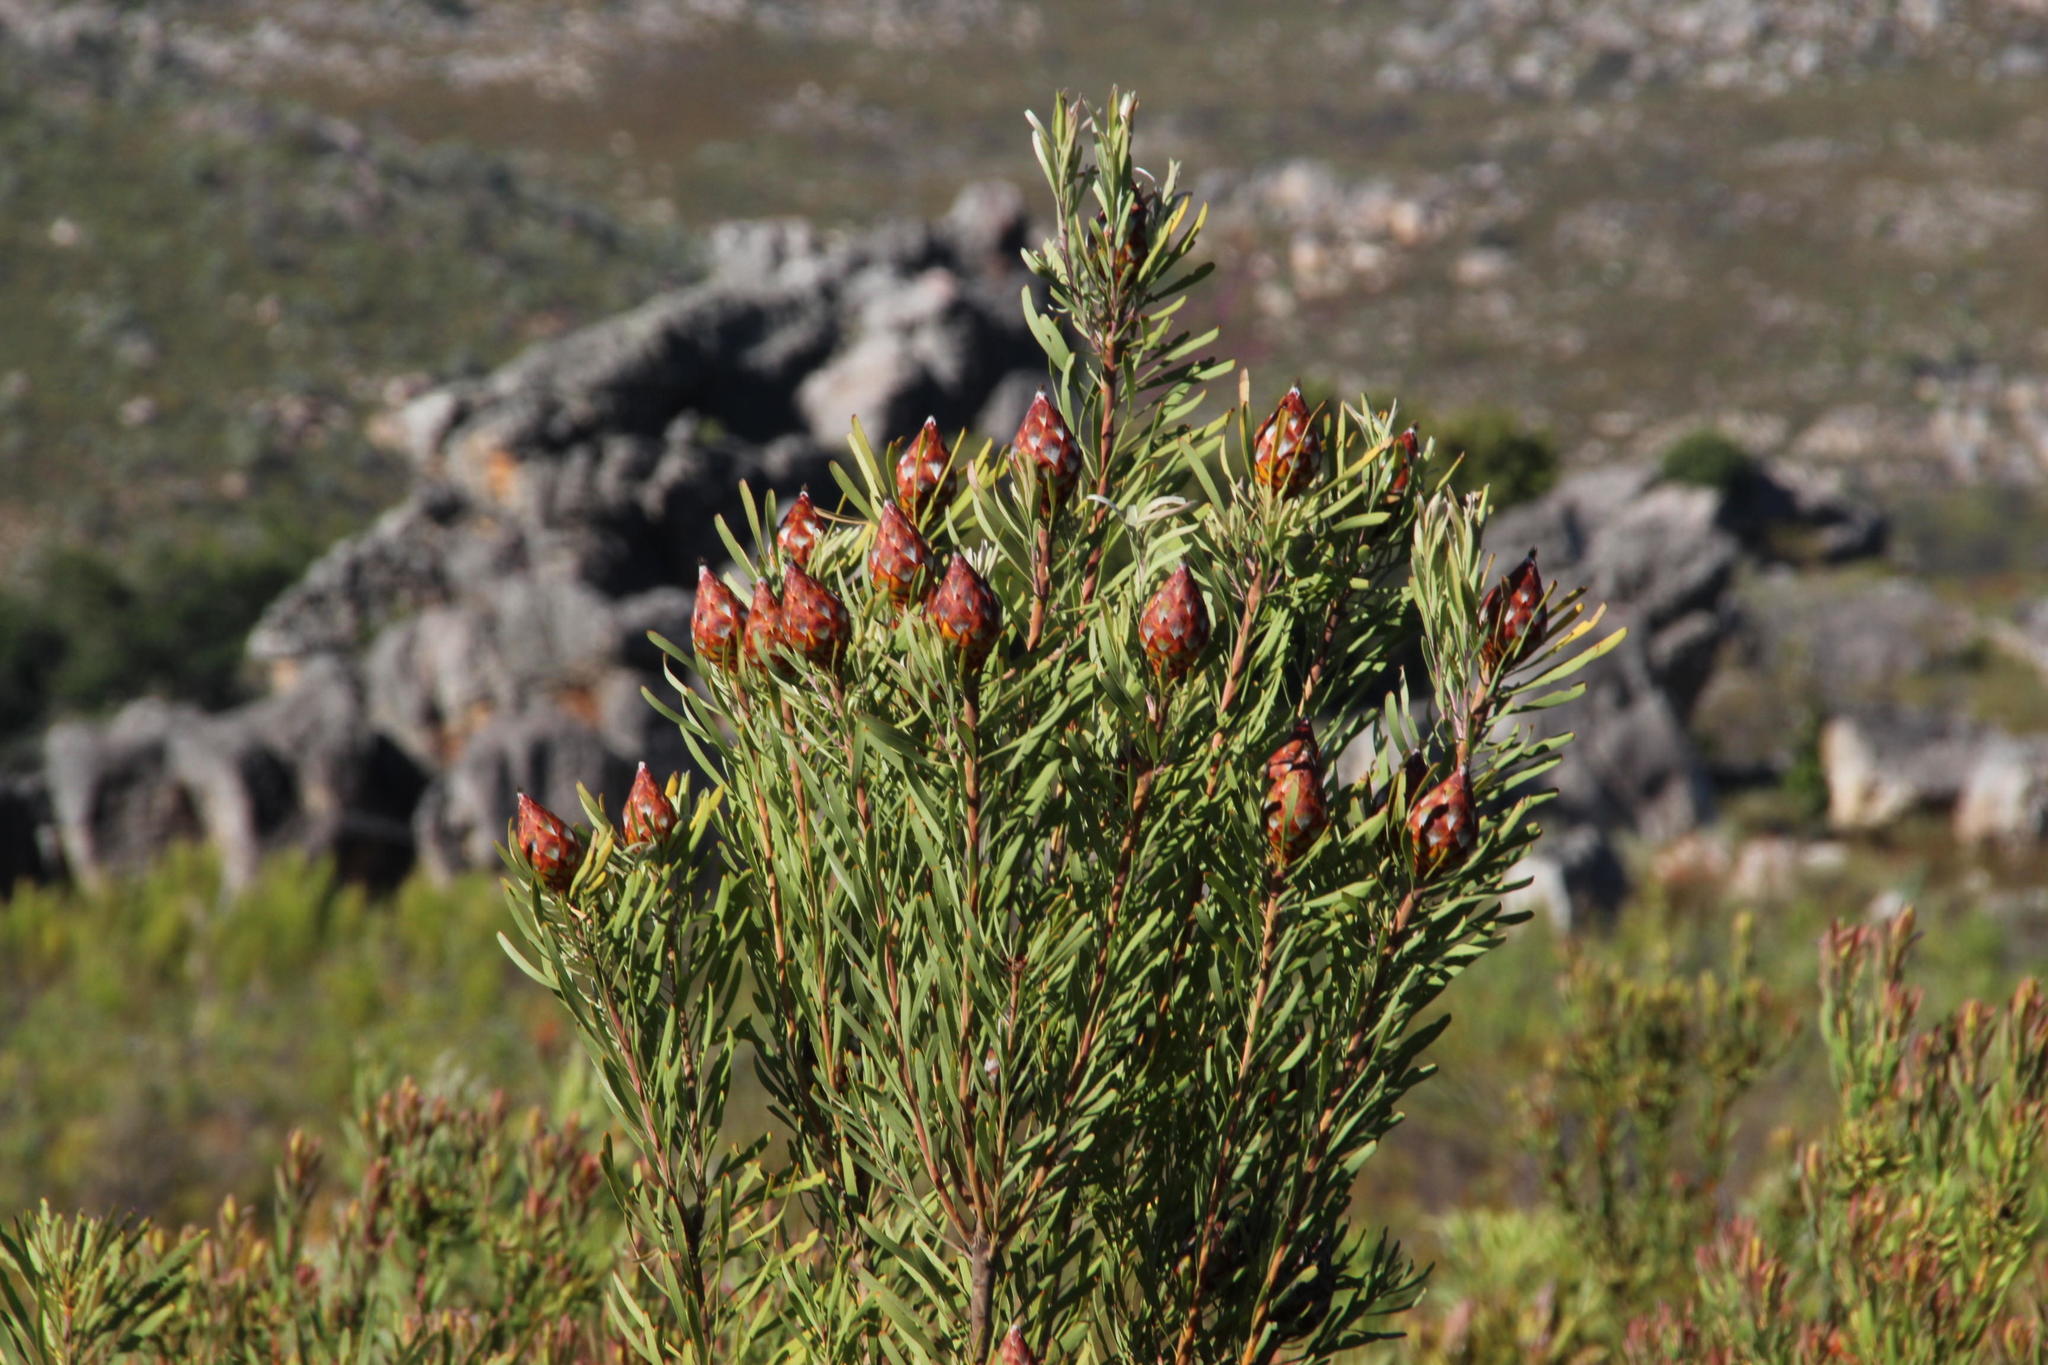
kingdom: Plantae
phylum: Tracheophyta
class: Magnoliopsida
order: Proteales
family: Proteaceae
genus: Leucadendron
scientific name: Leucadendron rubrum
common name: Spinning top
